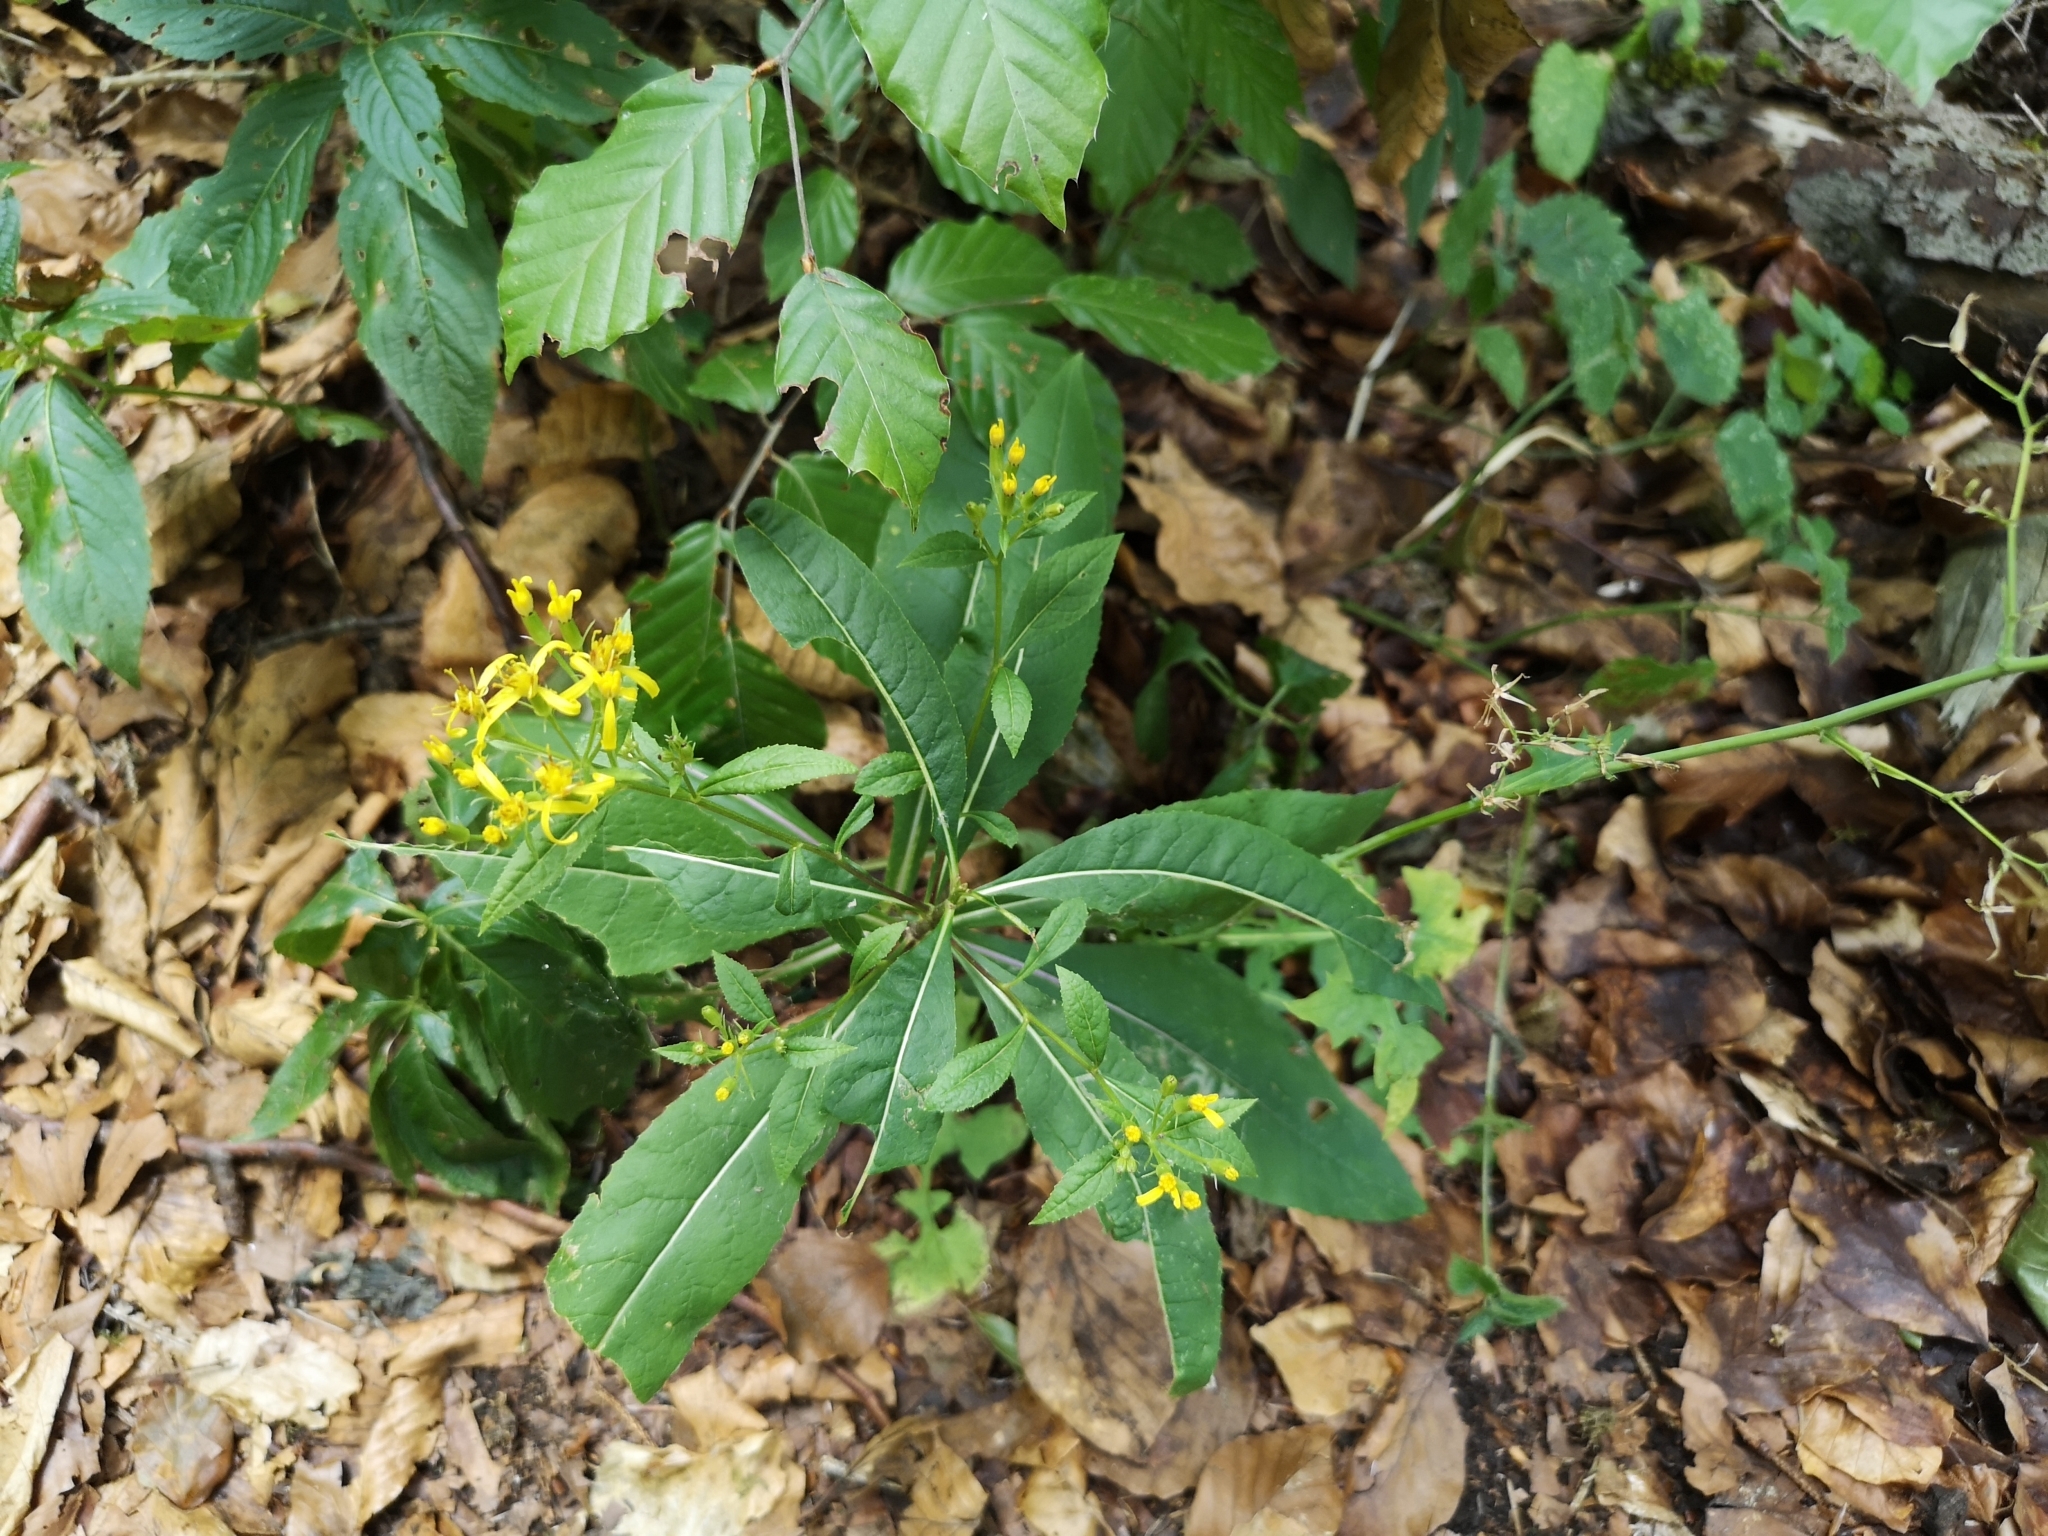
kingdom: Plantae
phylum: Tracheophyta
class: Magnoliopsida
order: Asterales
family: Asteraceae
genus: Senecio
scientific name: Senecio ovatus
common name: Wood ragwort
